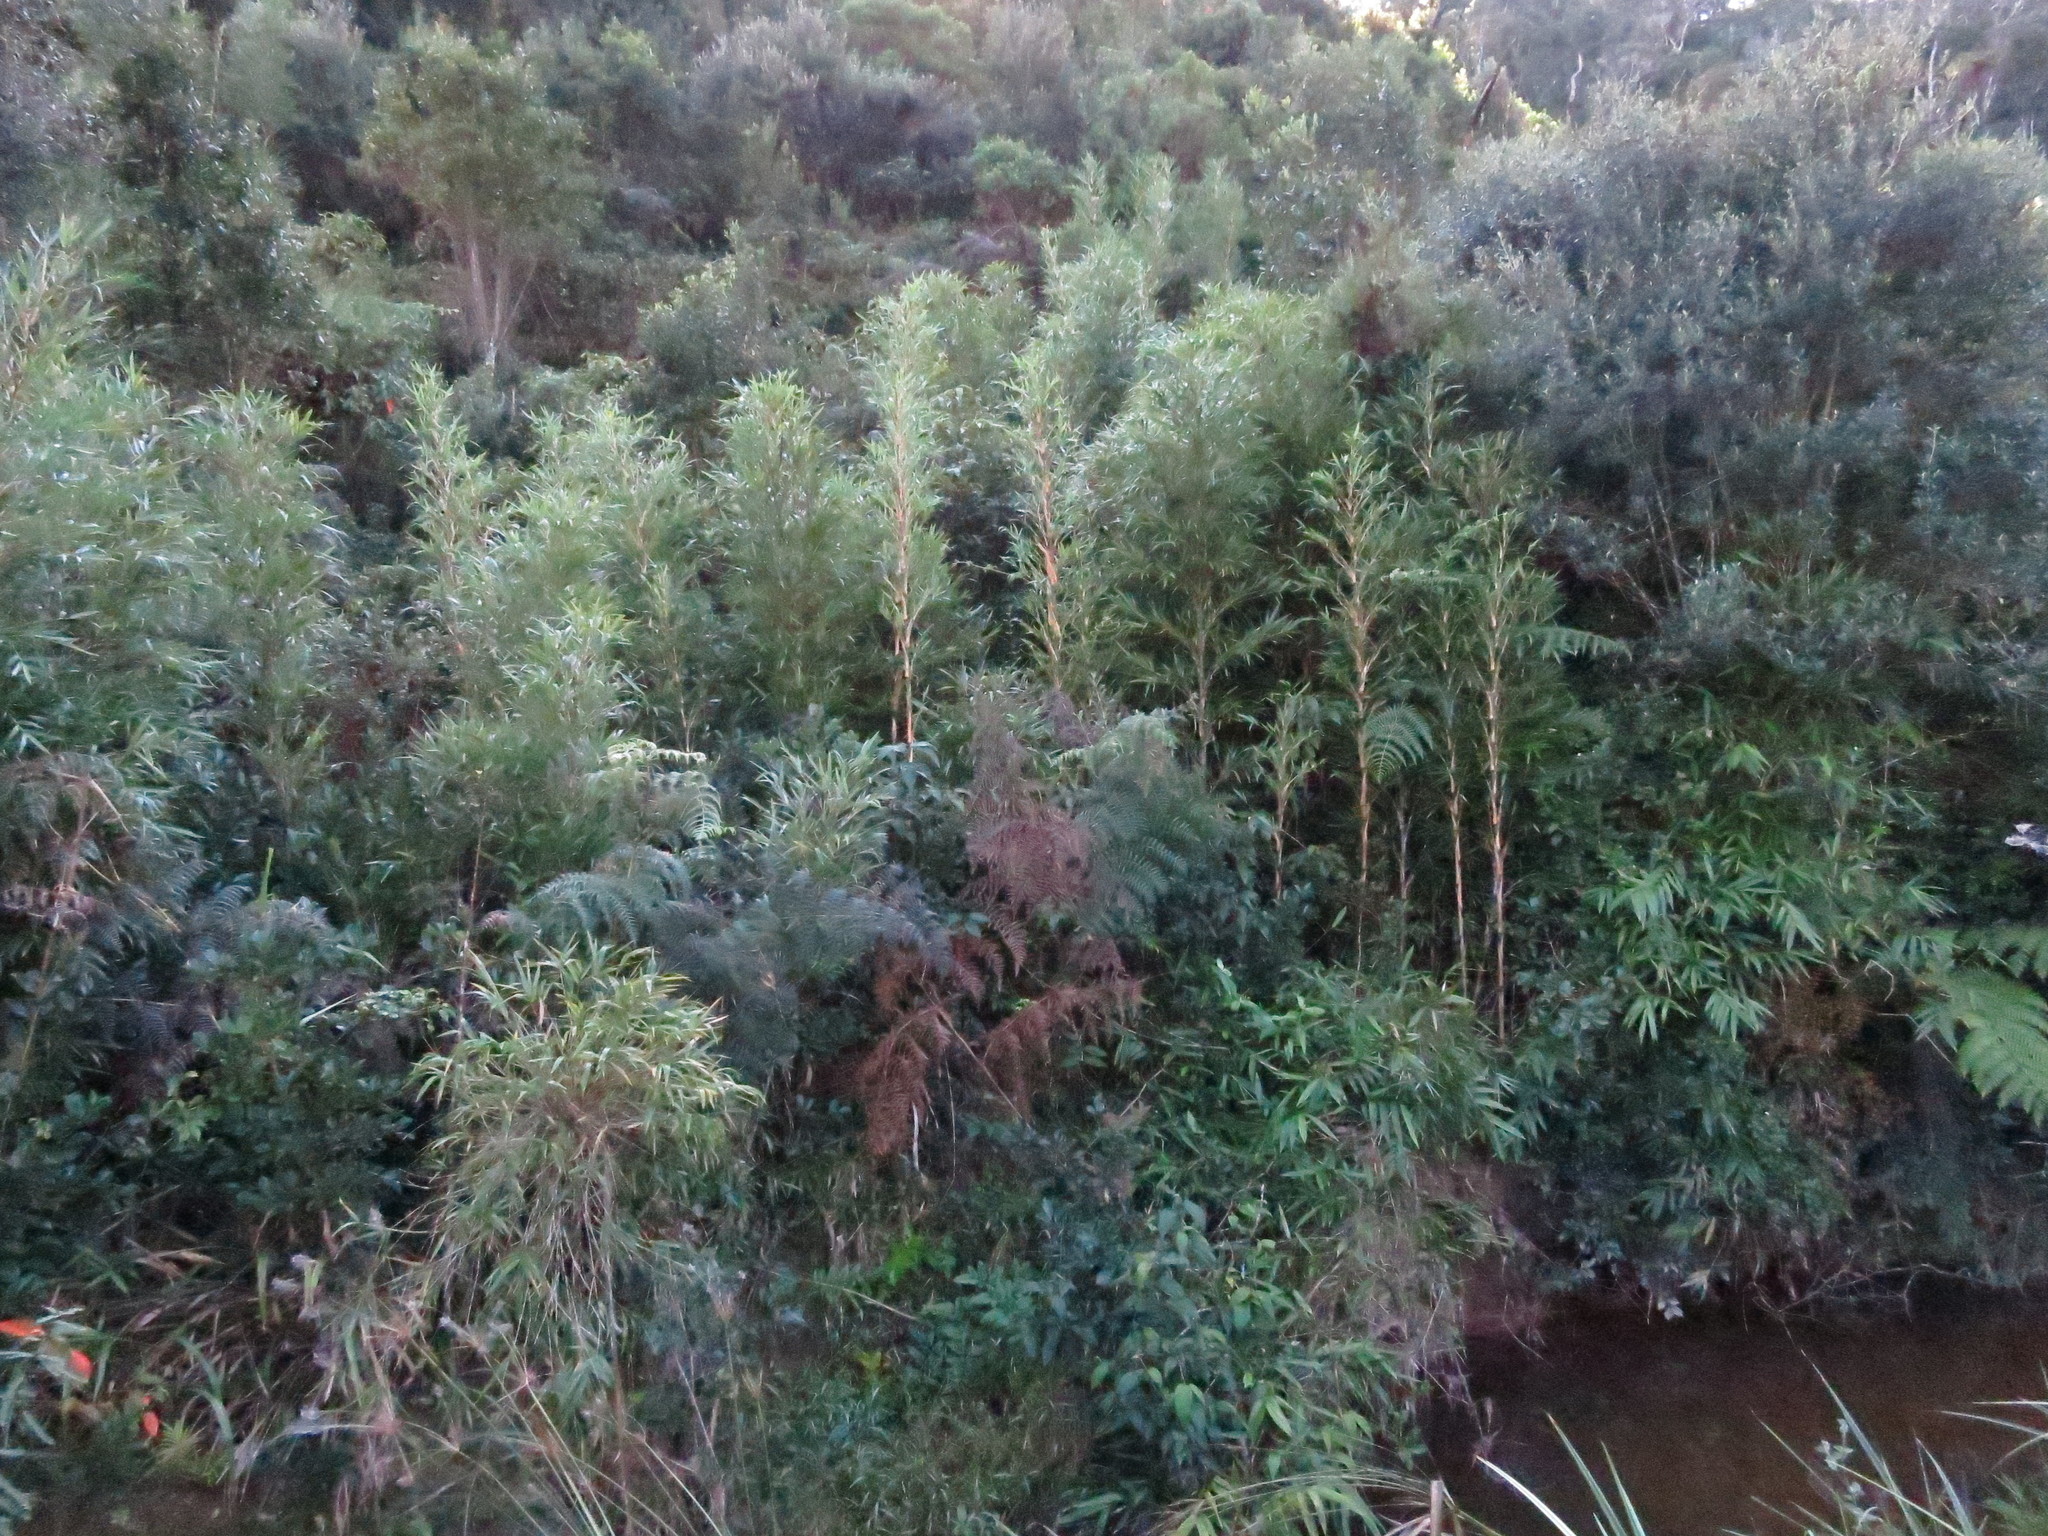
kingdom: Plantae
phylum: Tracheophyta
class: Liliopsida
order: Poales
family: Poaceae
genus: Oldeania
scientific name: Oldeania humbertii
